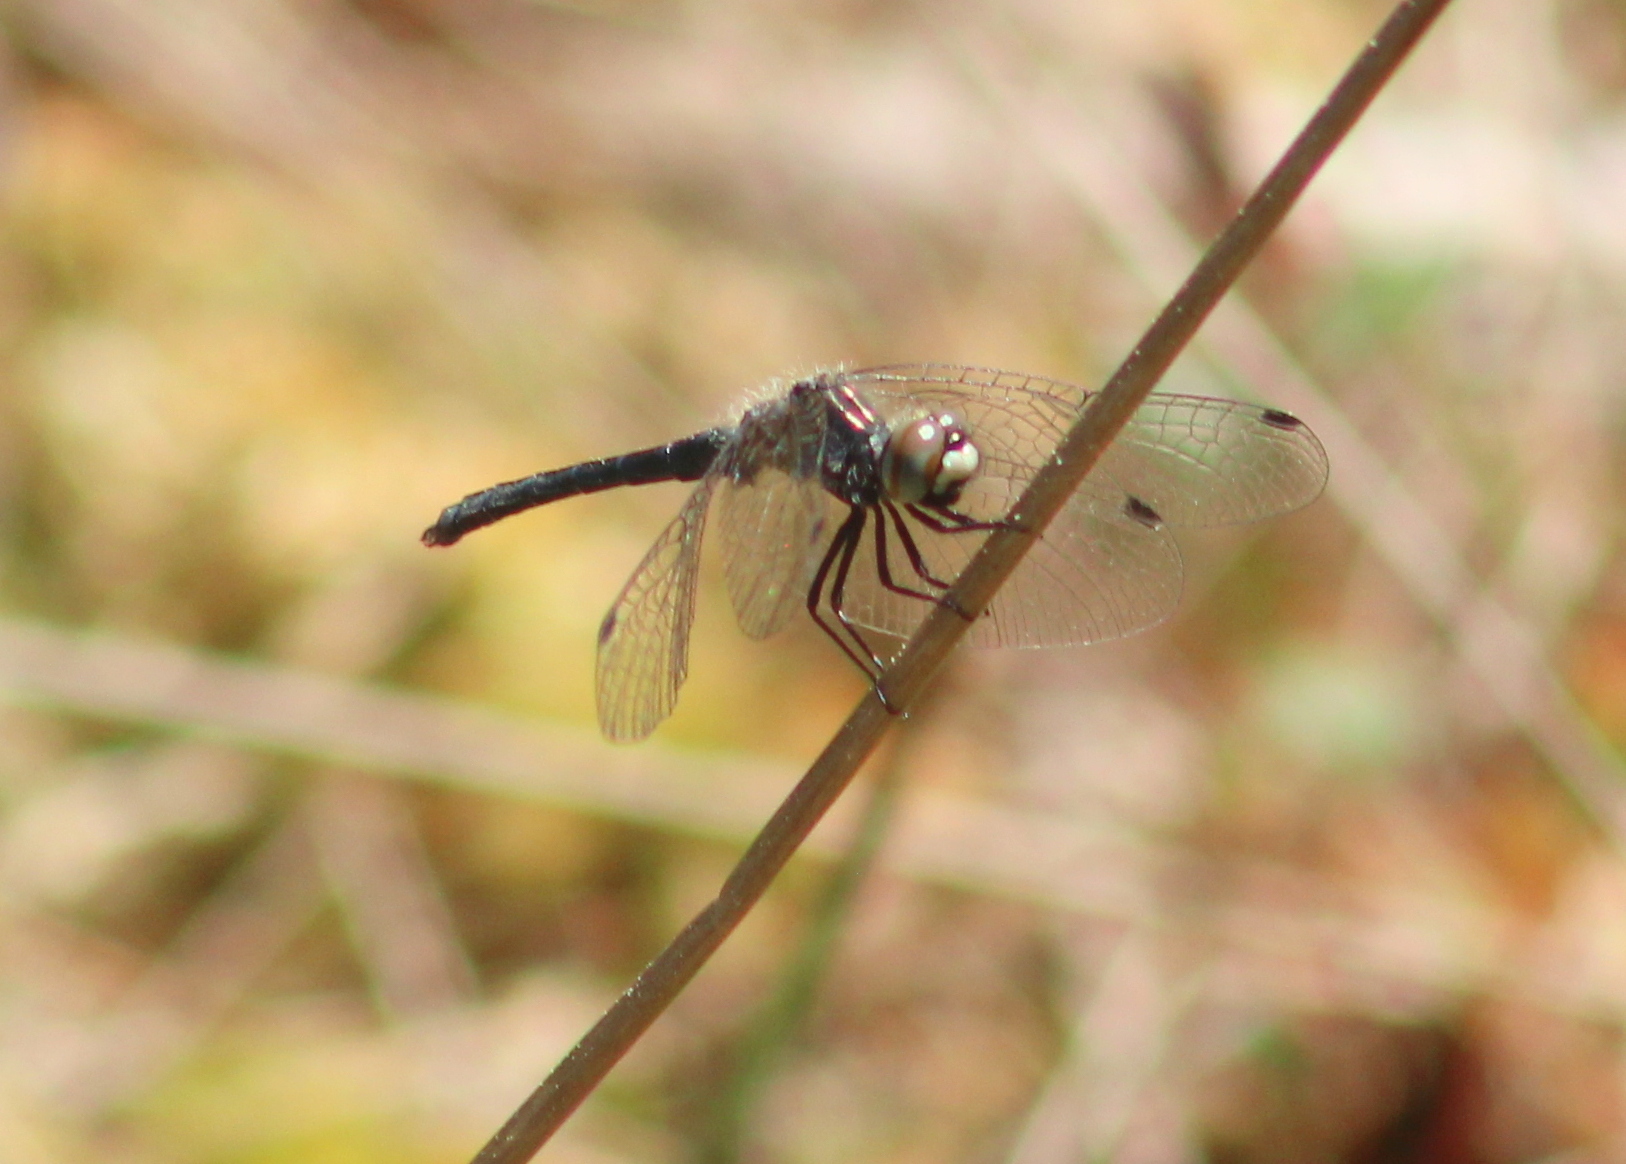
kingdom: Animalia
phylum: Arthropoda
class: Insecta
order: Odonata
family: Libellulidae
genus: Nannothemis
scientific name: Nannothemis bella
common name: Elfin skimmer
